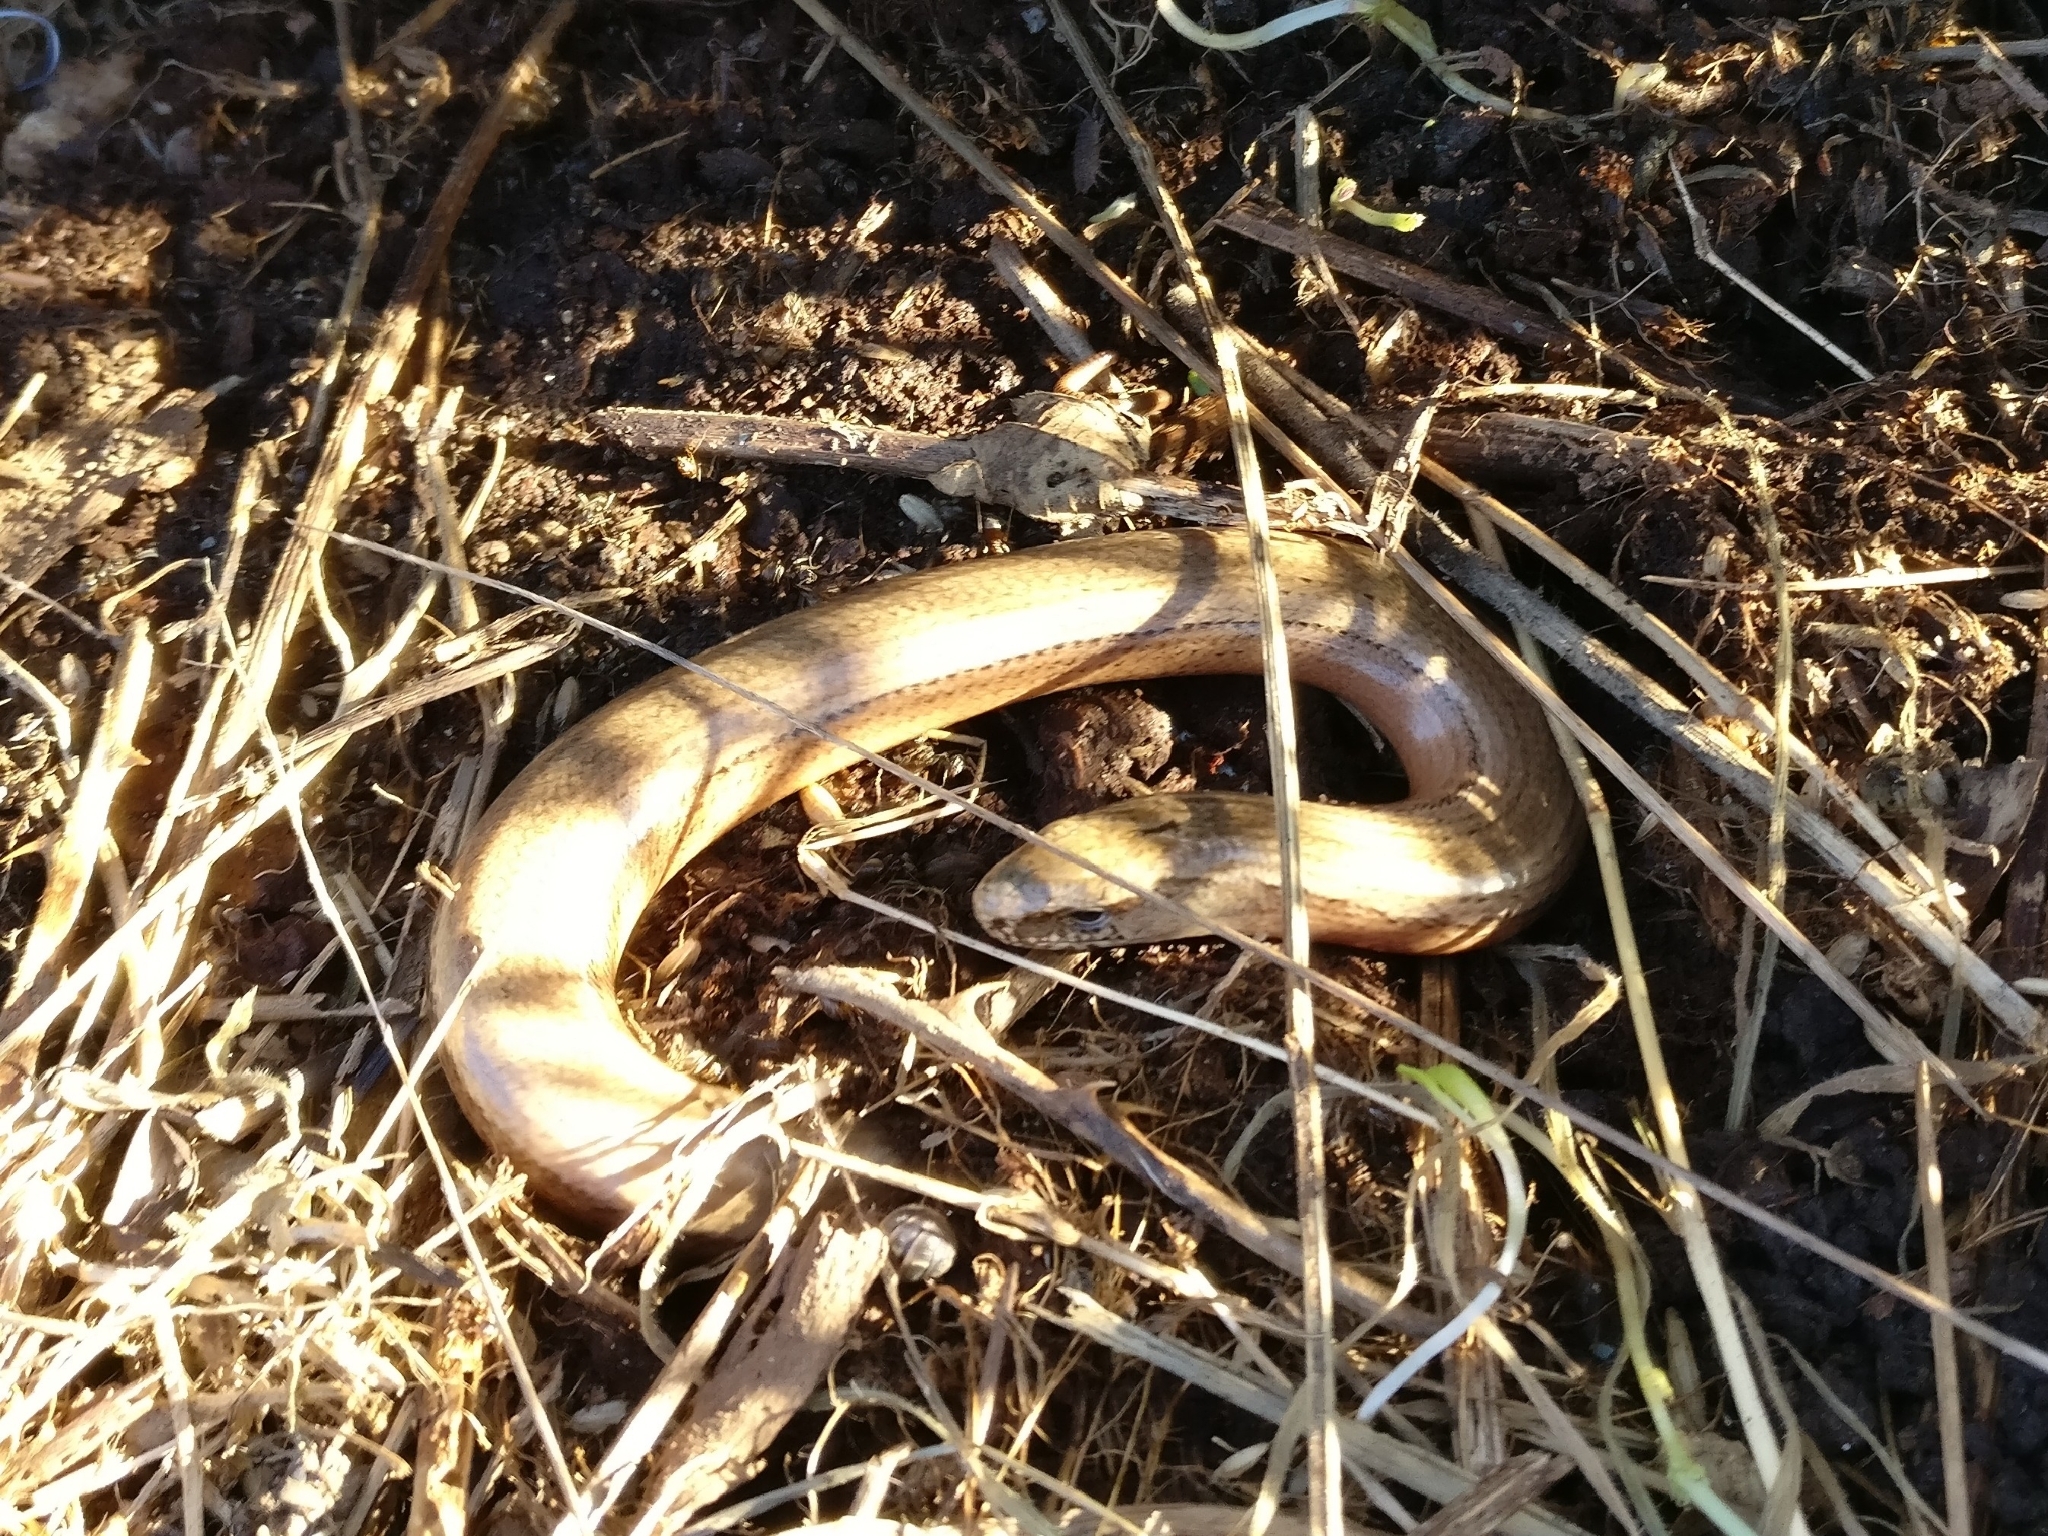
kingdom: Animalia
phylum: Chordata
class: Squamata
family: Anguidae
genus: Anguis
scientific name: Anguis fragilis
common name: Slow worm
